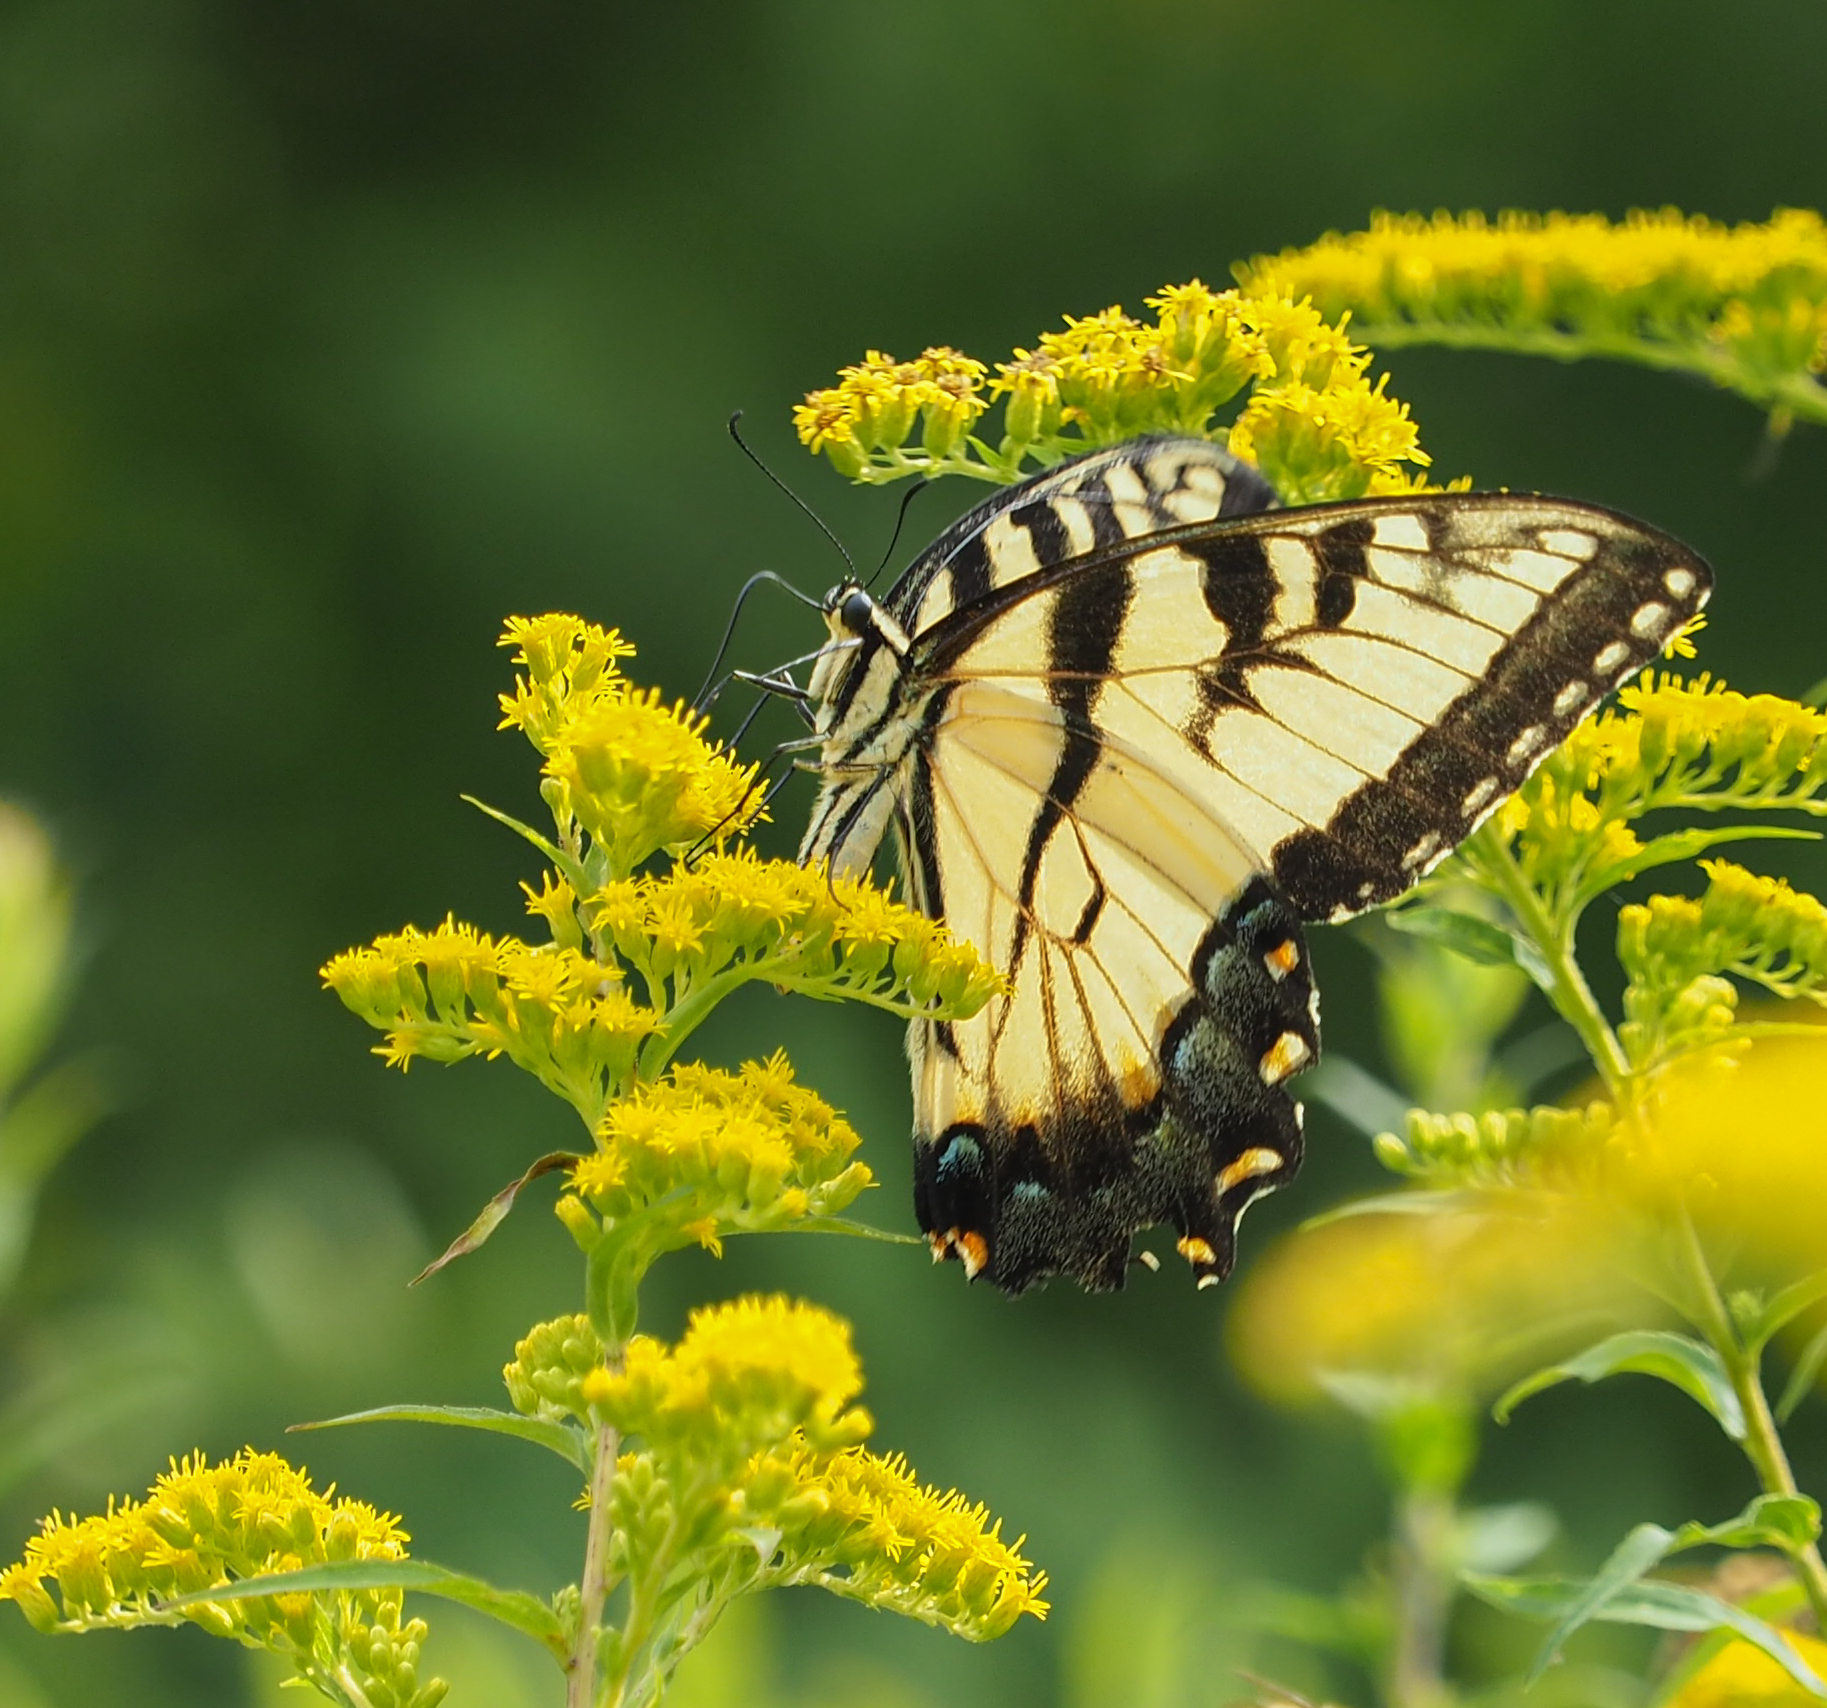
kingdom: Animalia
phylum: Arthropoda
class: Insecta
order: Lepidoptera
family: Papilionidae
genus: Papilio
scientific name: Papilio glaucus
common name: Tiger swallowtail
